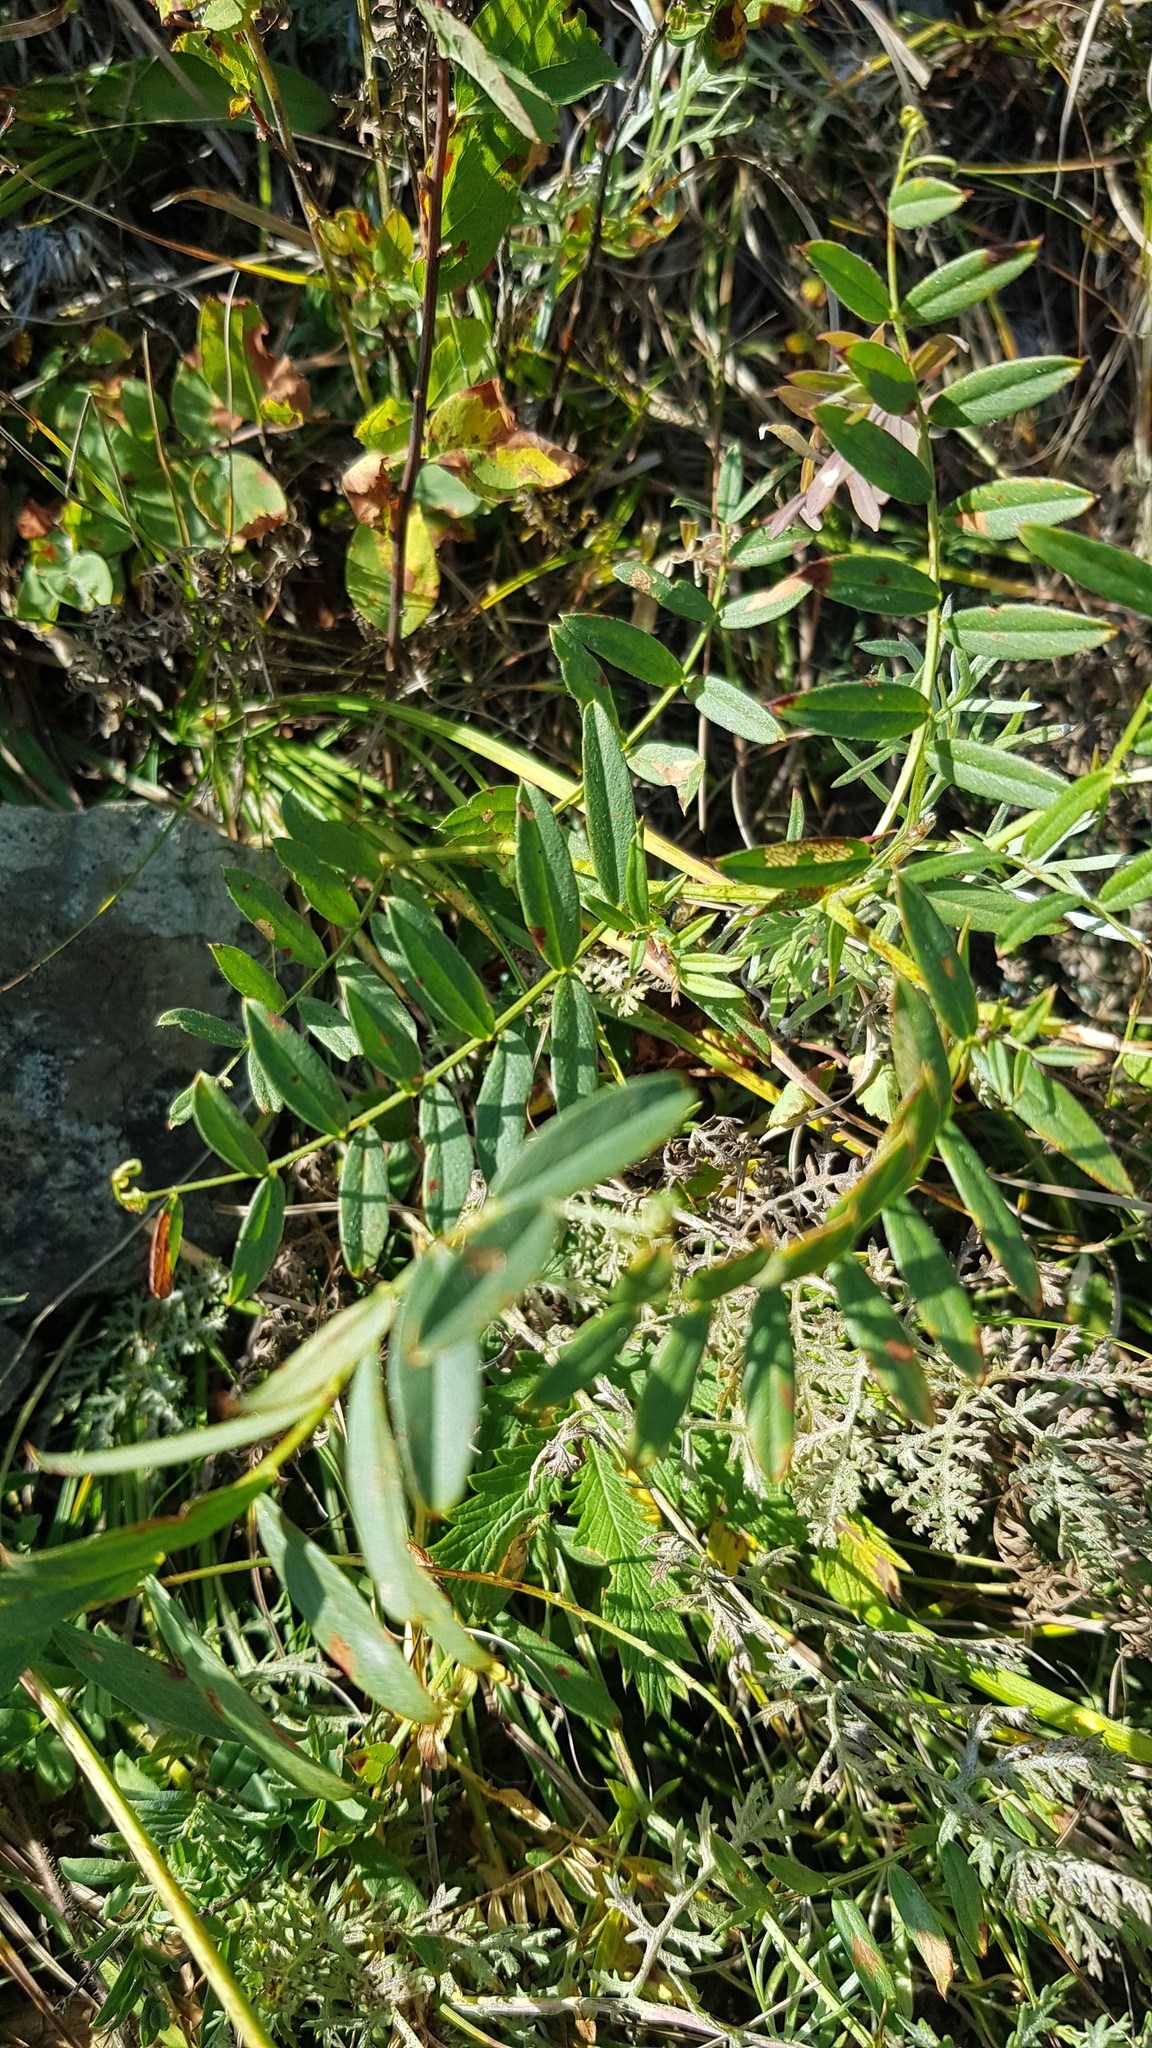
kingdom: Plantae
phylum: Tracheophyta
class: Magnoliopsida
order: Fabales
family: Fabaceae
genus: Vicia
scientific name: Vicia amoena
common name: Cheder ebs
